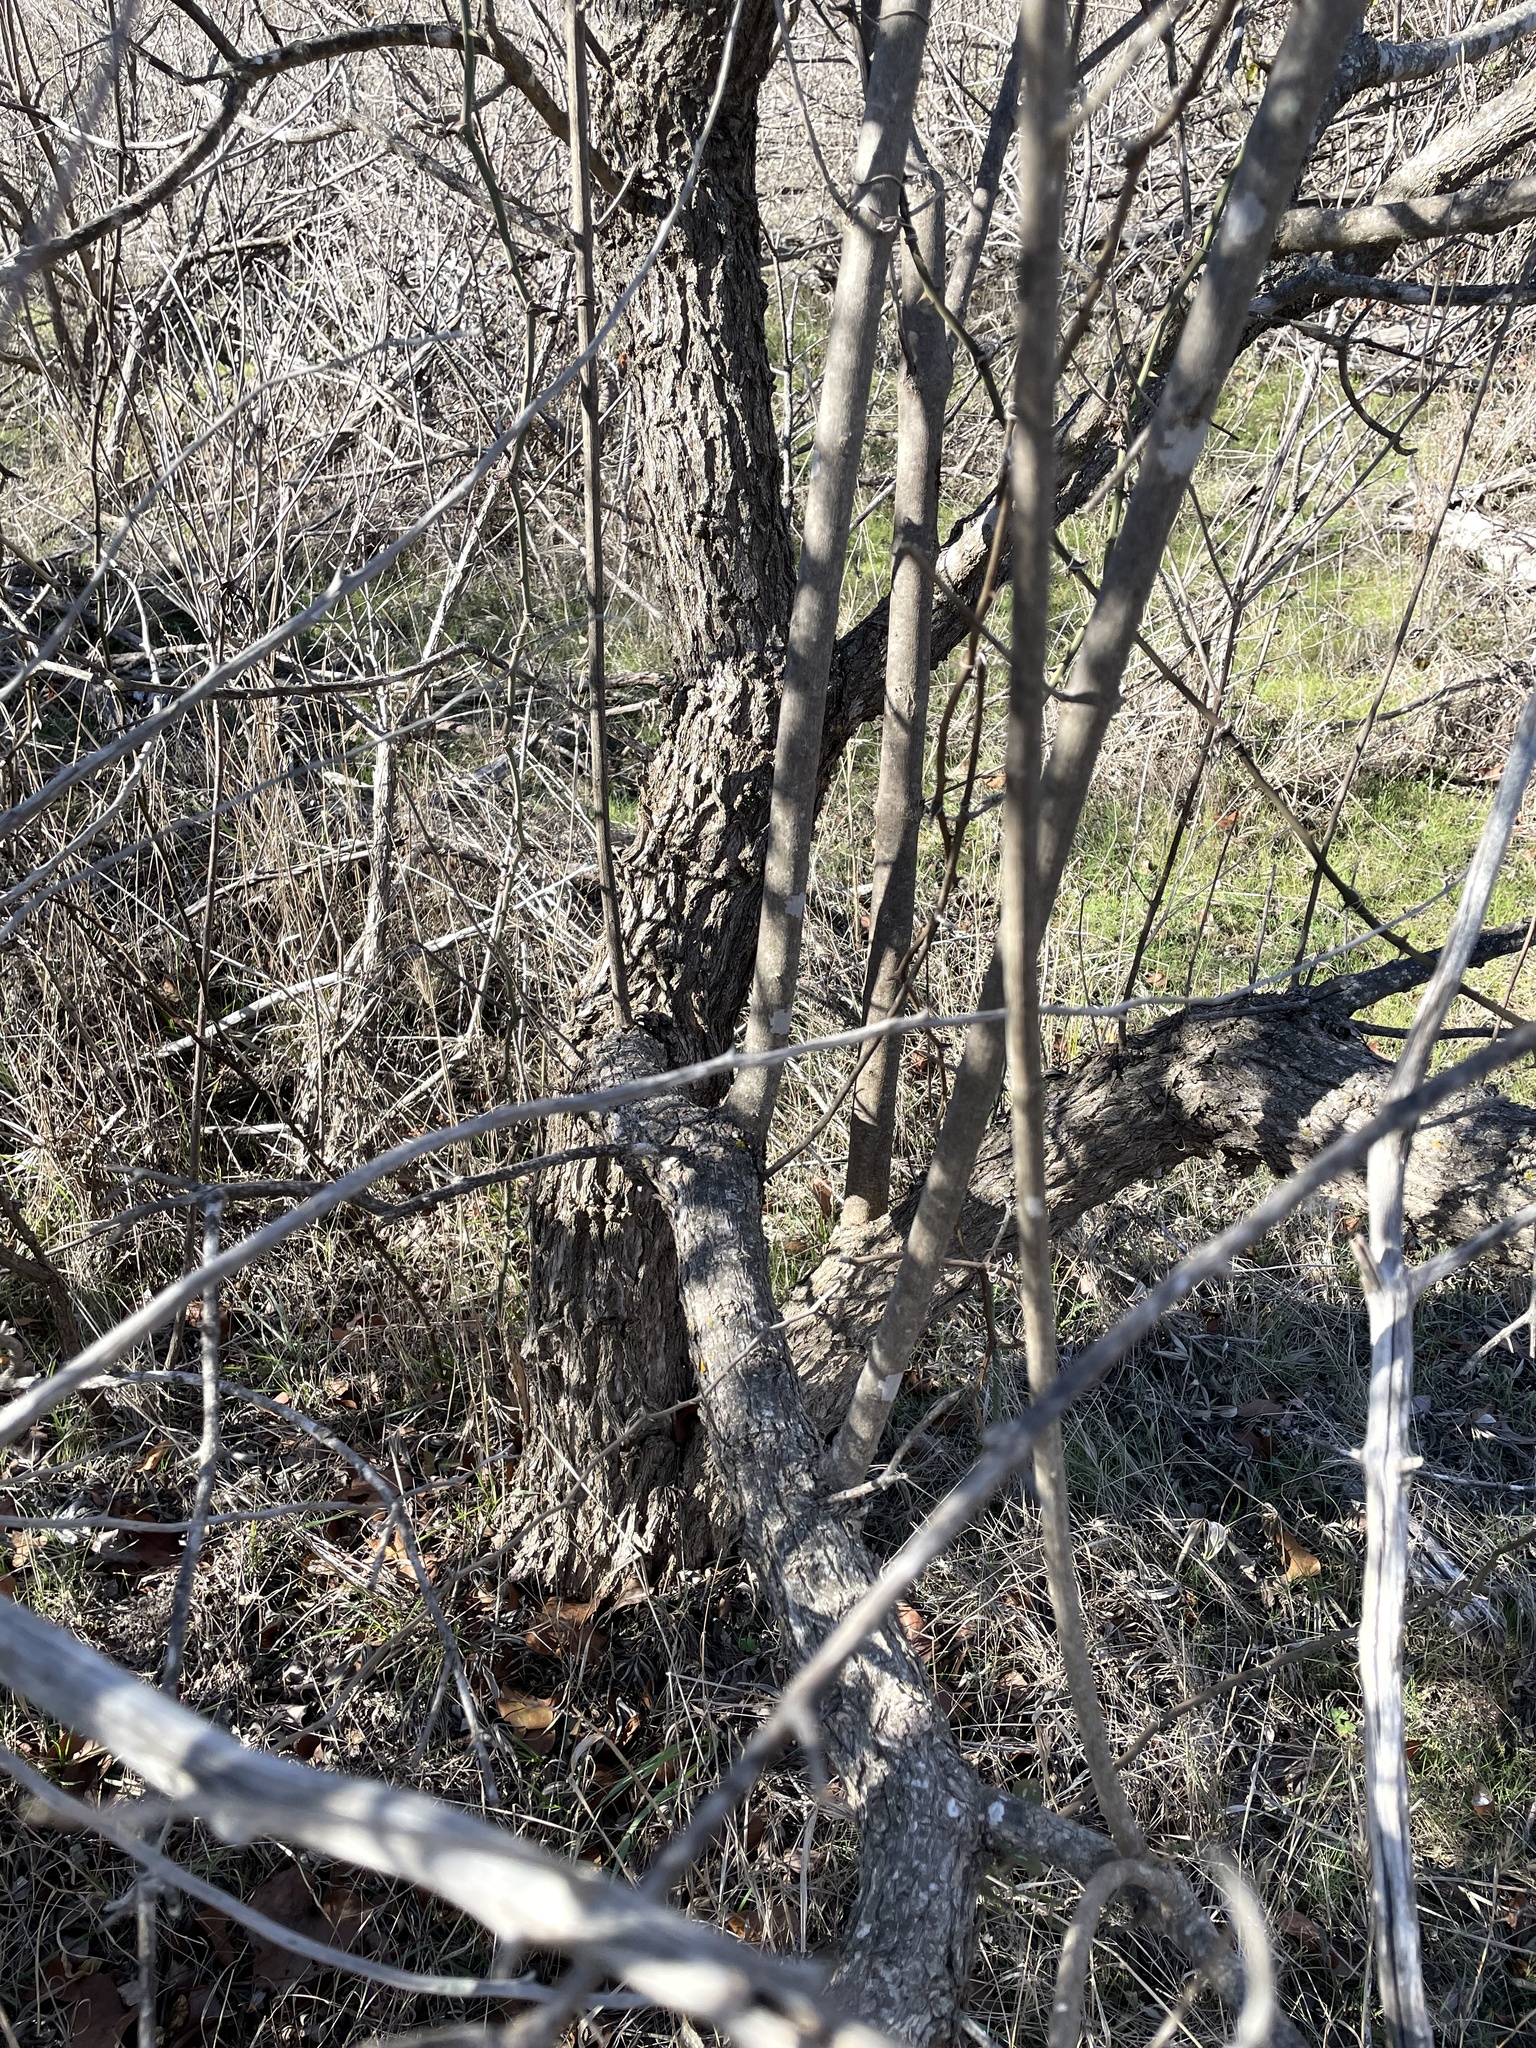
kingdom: Plantae
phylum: Tracheophyta
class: Magnoliopsida
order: Lamiales
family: Lamiaceae
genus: Vitex
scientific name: Vitex agnus-castus
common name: Chasteberry
